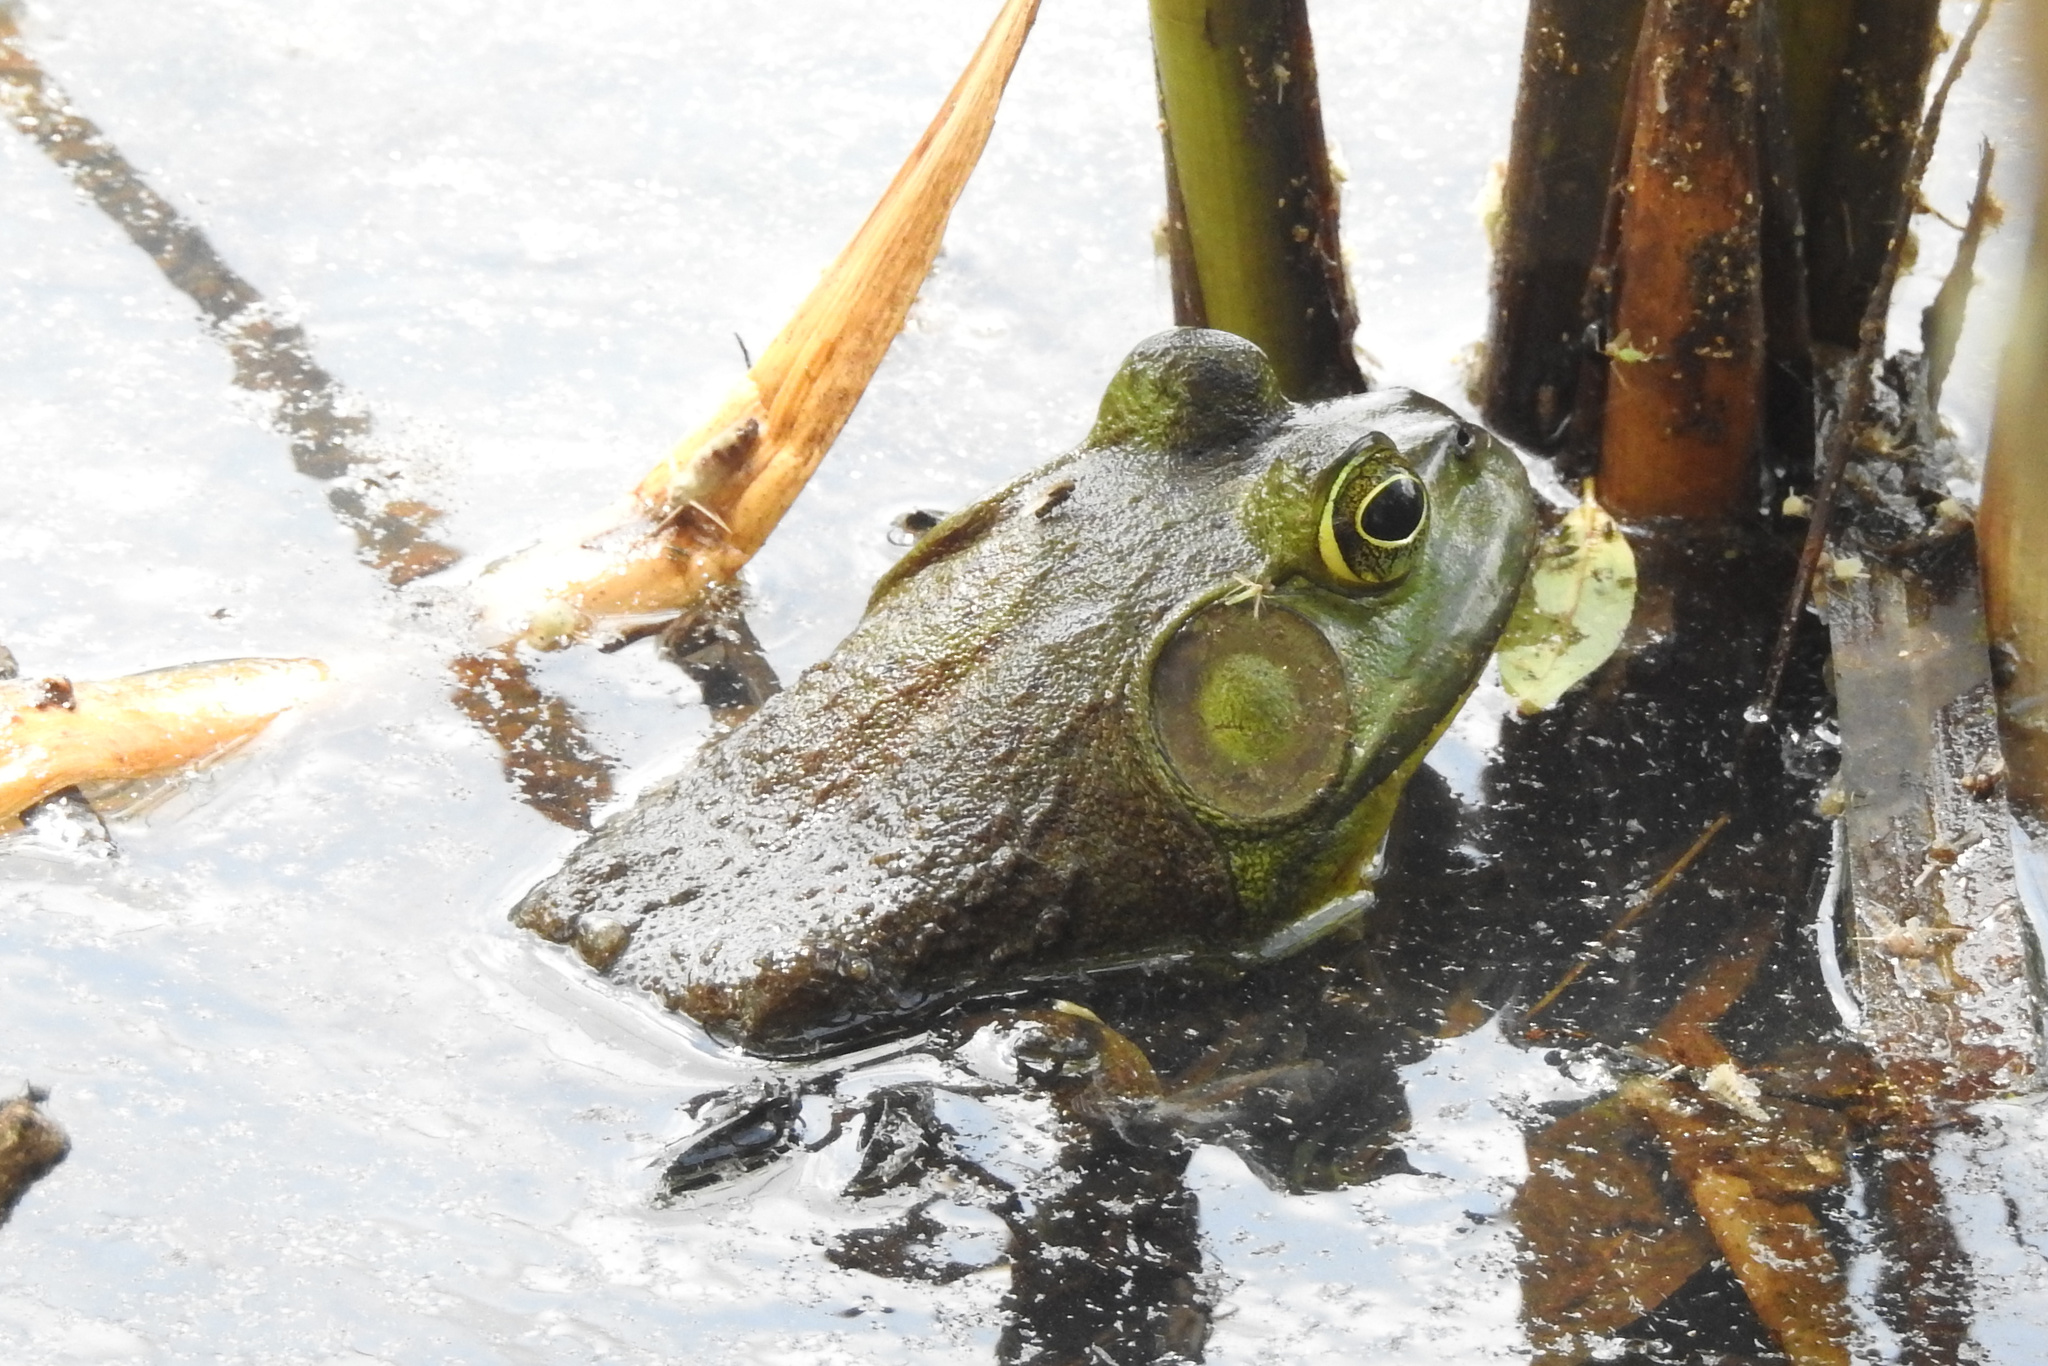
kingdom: Animalia
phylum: Chordata
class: Amphibia
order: Anura
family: Ranidae
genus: Lithobates
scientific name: Lithobates catesbeianus
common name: American bullfrog
